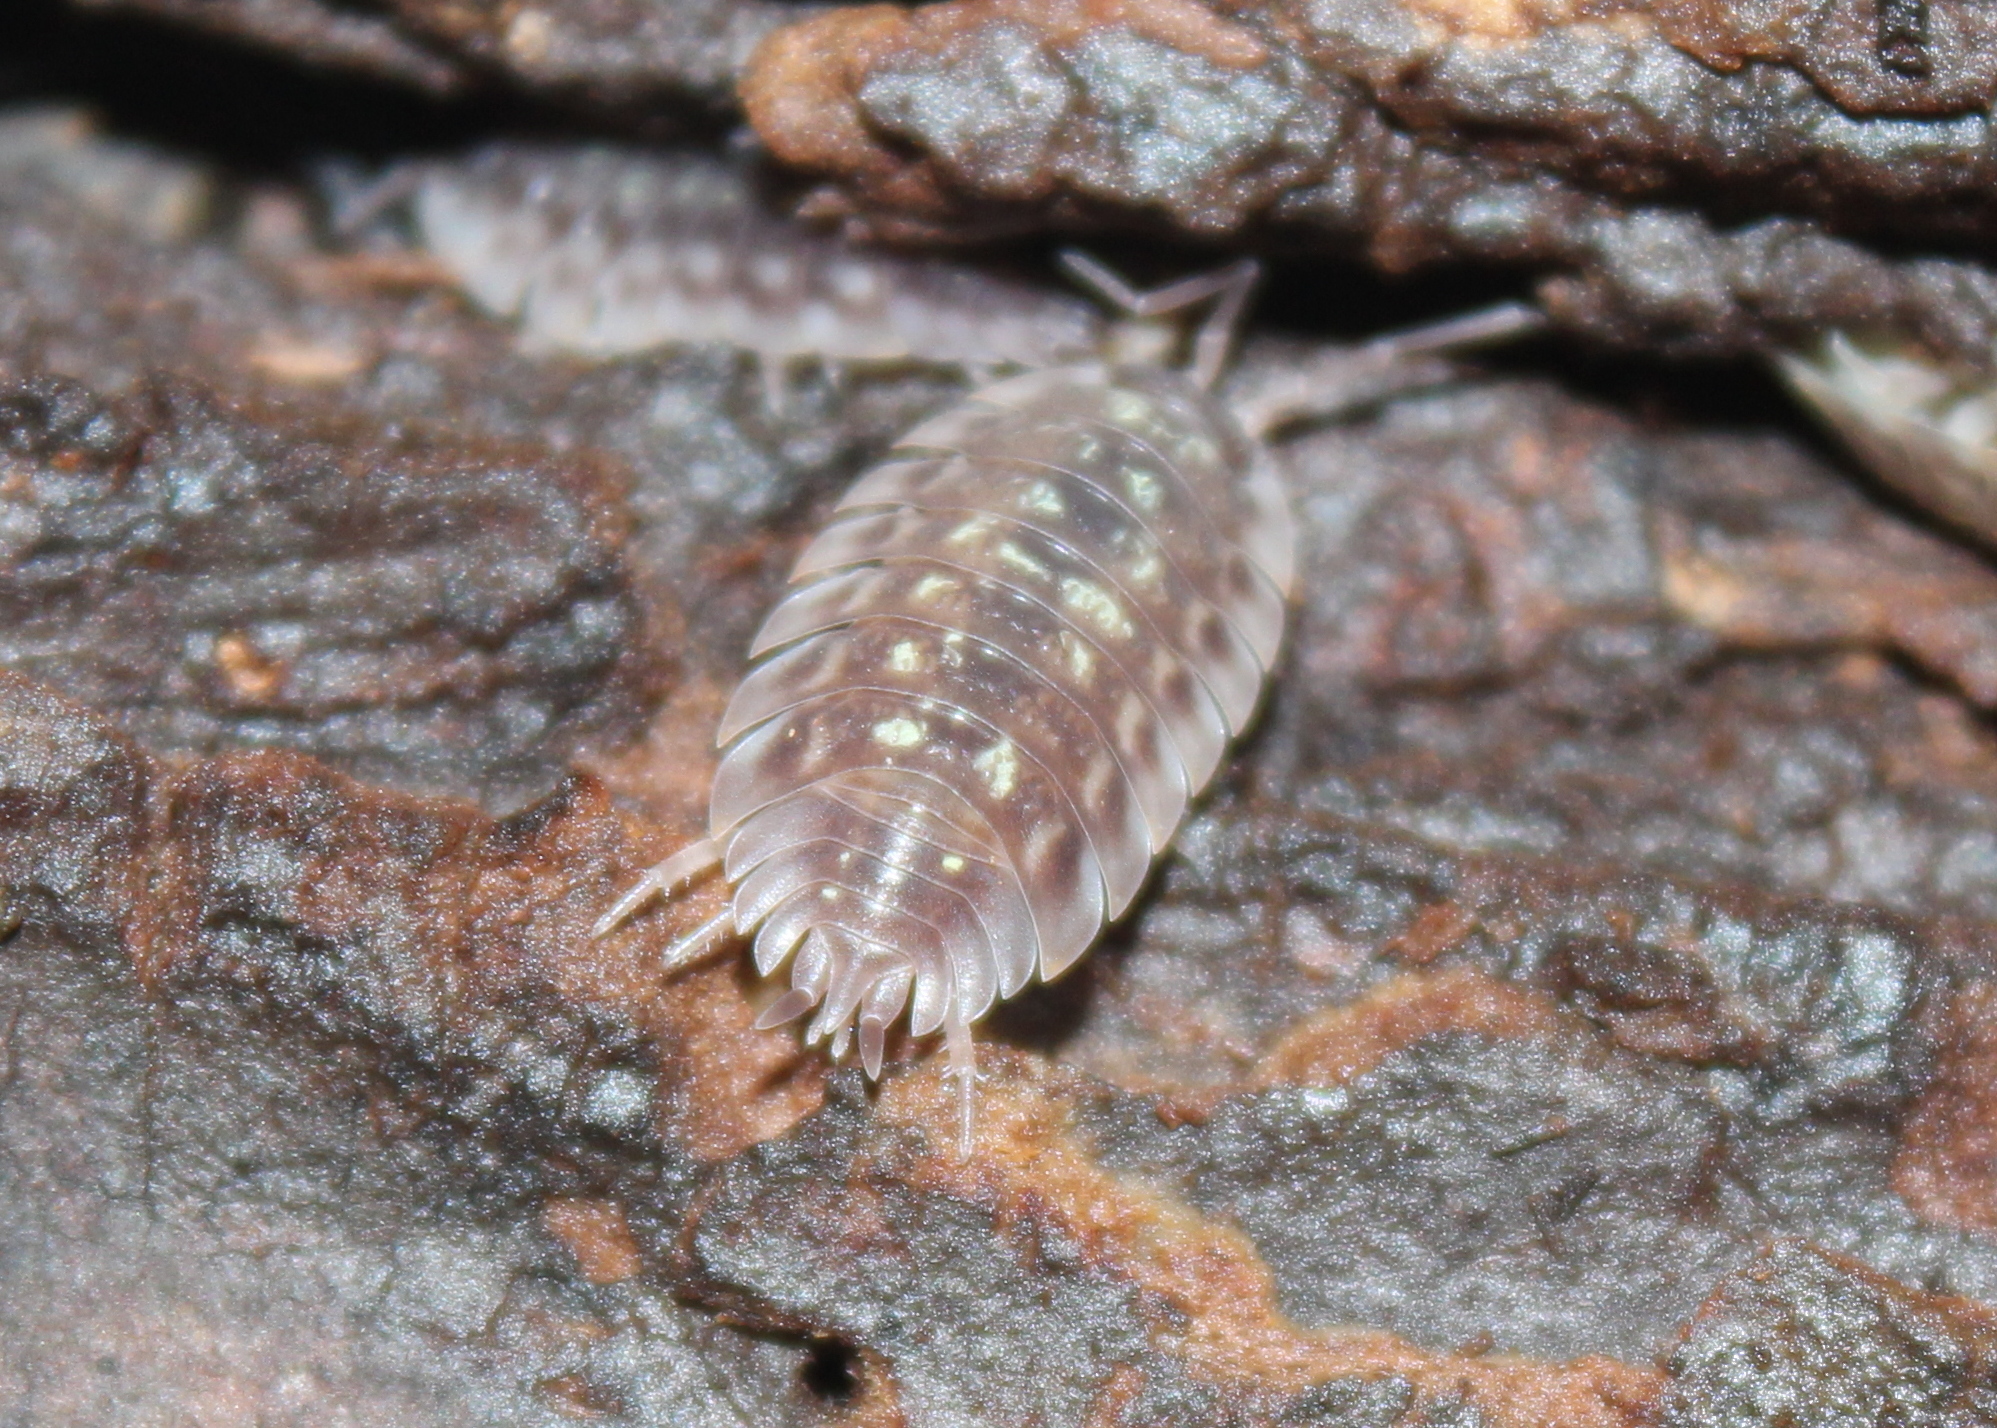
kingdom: Animalia
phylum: Arthropoda
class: Malacostraca
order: Isopoda
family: Oniscidae
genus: Oniscus
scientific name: Oniscus asellus
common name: Common shiny woodlouse
